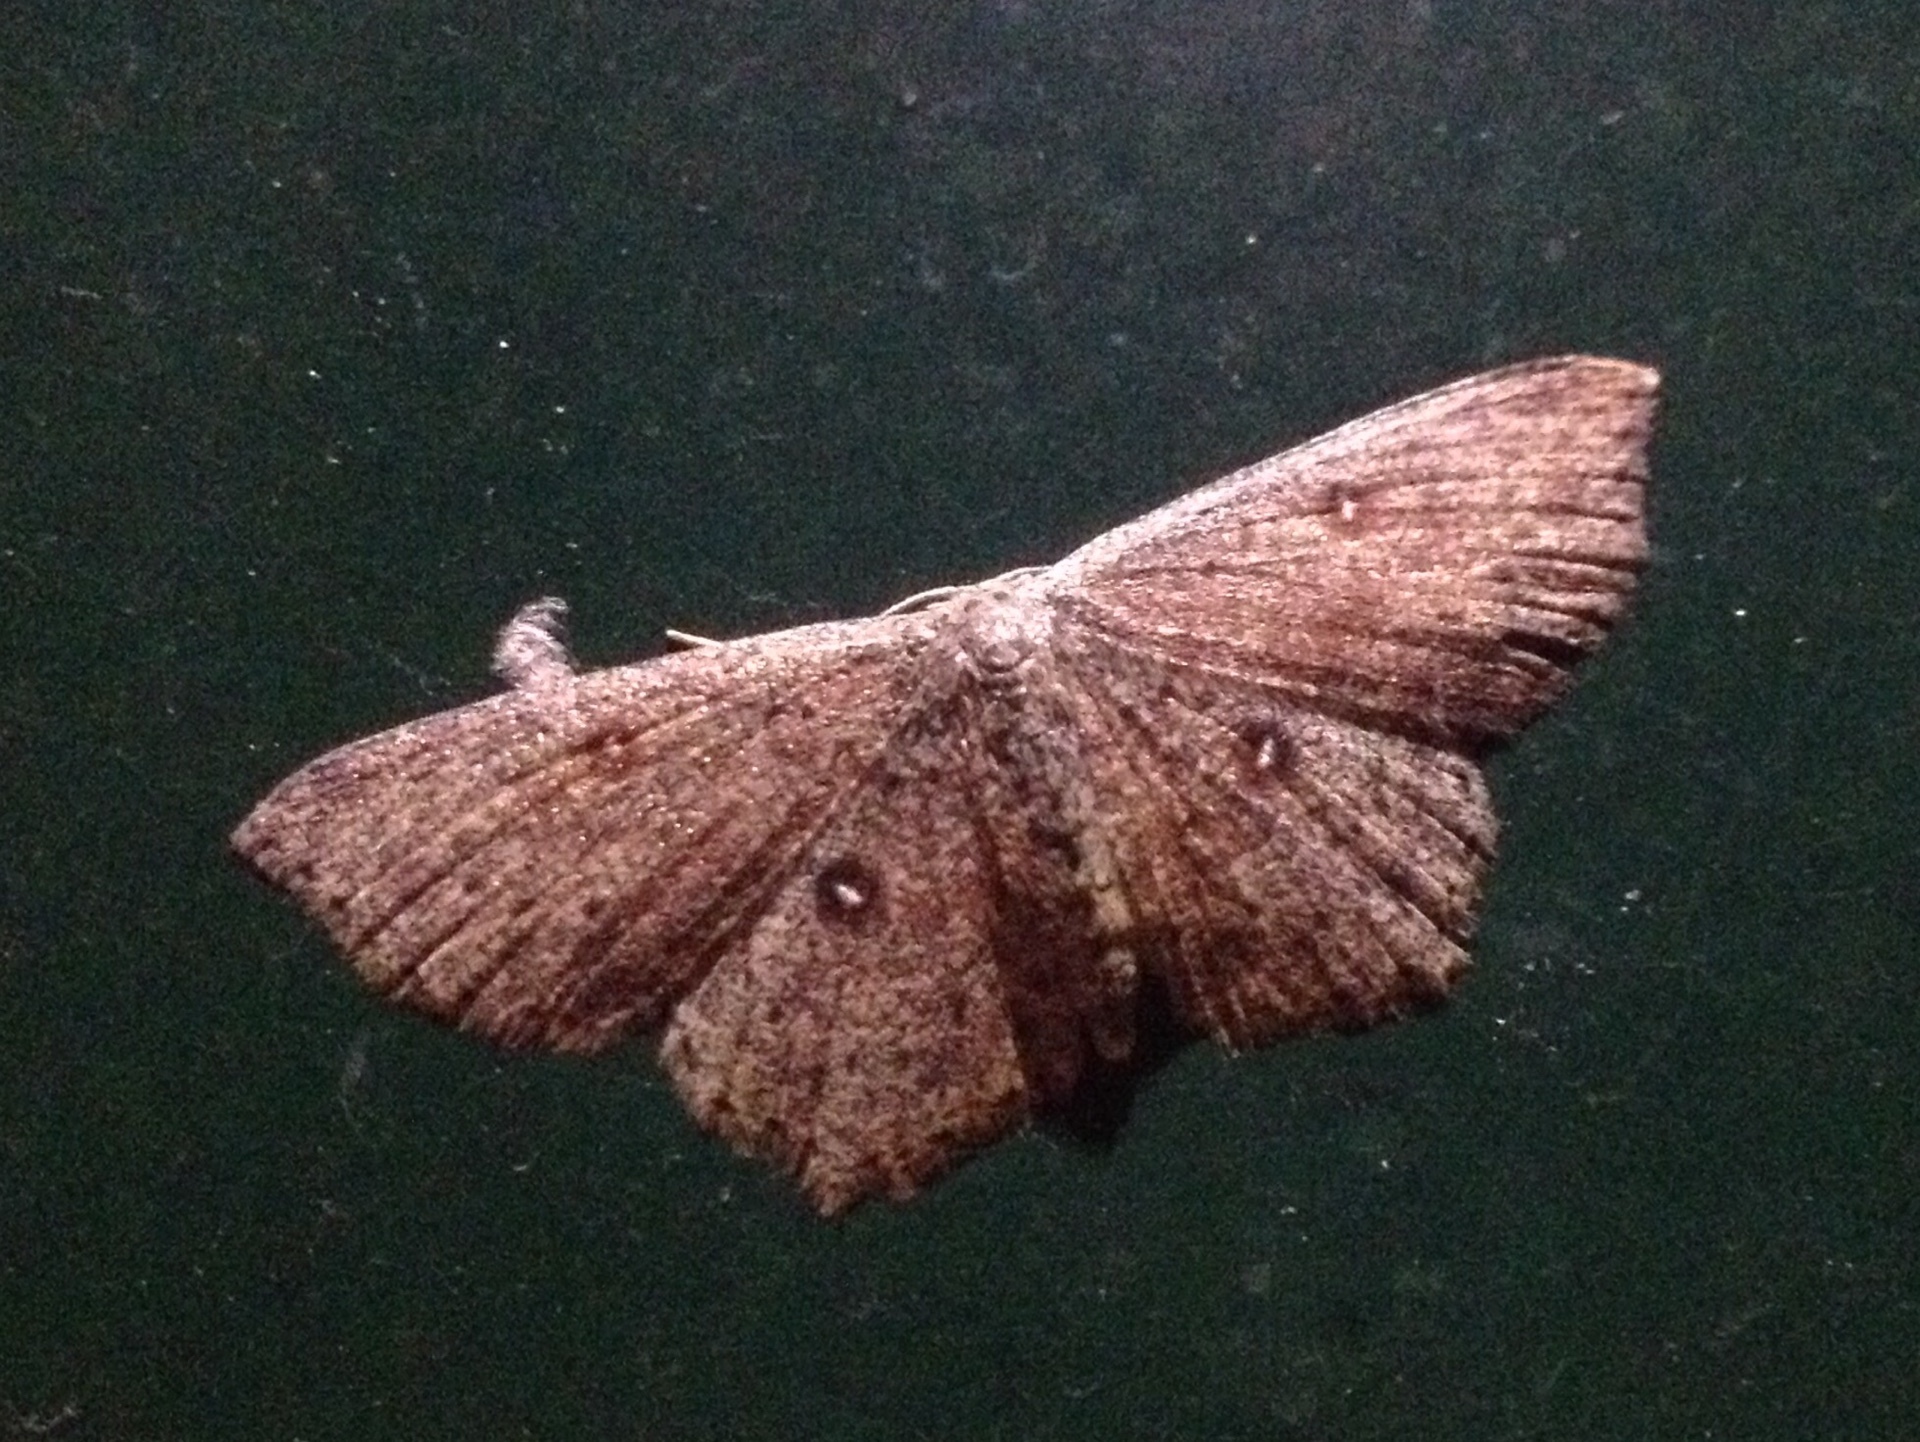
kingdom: Animalia
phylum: Arthropoda
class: Insecta
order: Lepidoptera
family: Geometridae
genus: Cyclophora
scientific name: Cyclophora pendularia
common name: Dingy mocha
